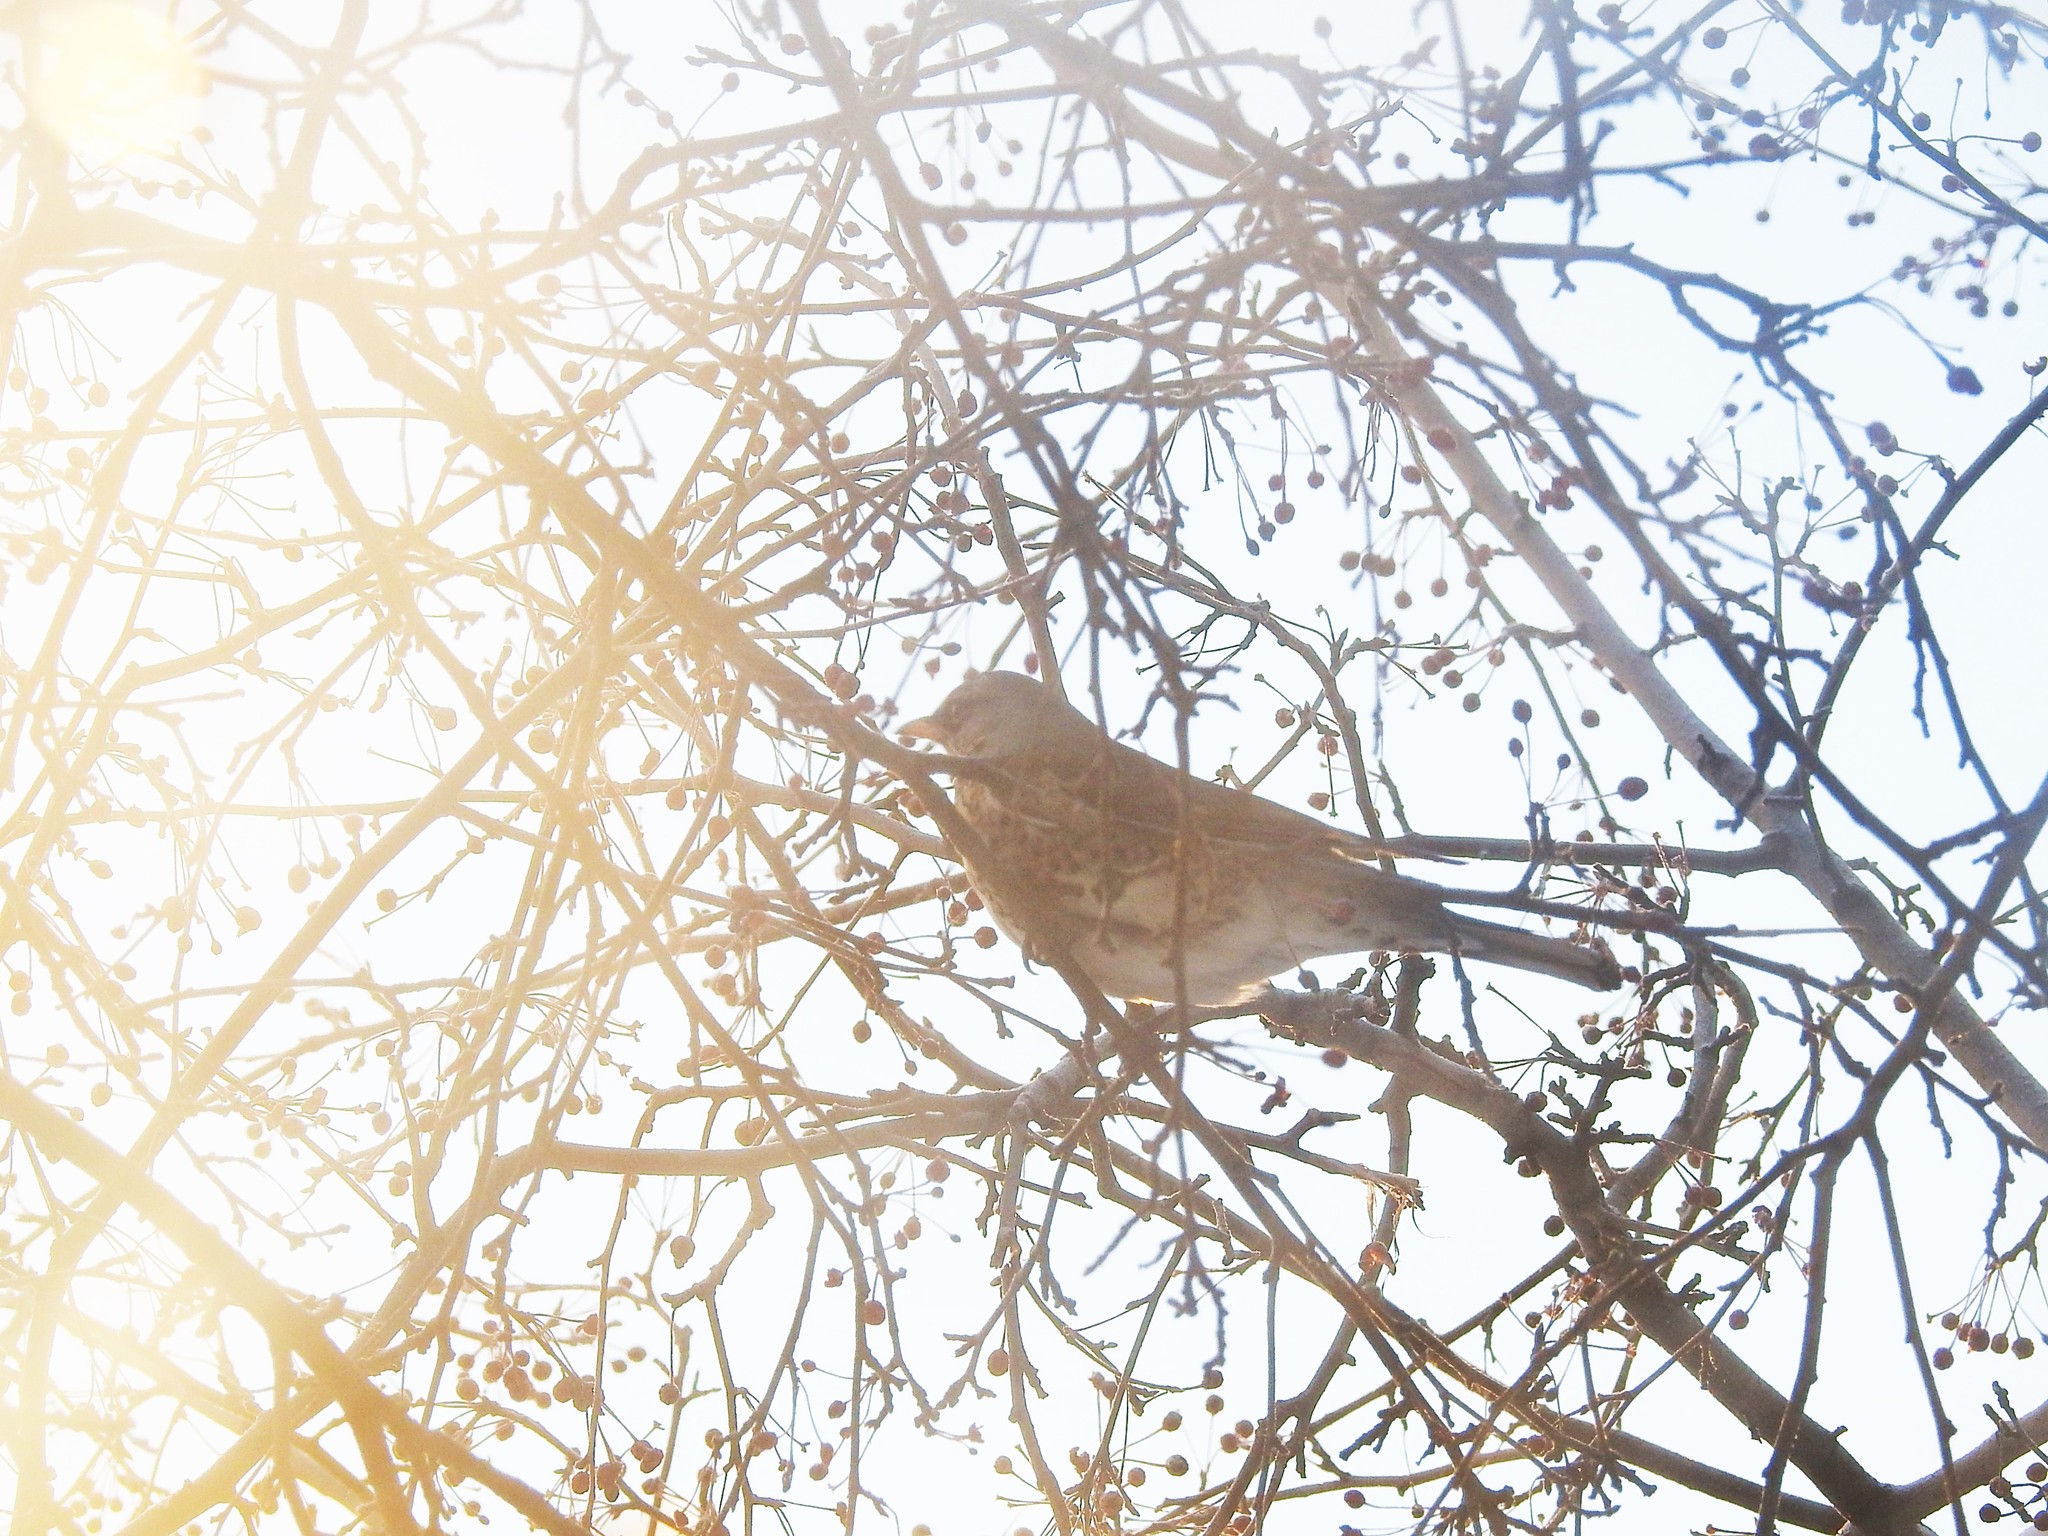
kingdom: Animalia
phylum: Chordata
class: Aves
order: Passeriformes
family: Turdidae
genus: Turdus
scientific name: Turdus pilaris
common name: Fieldfare
